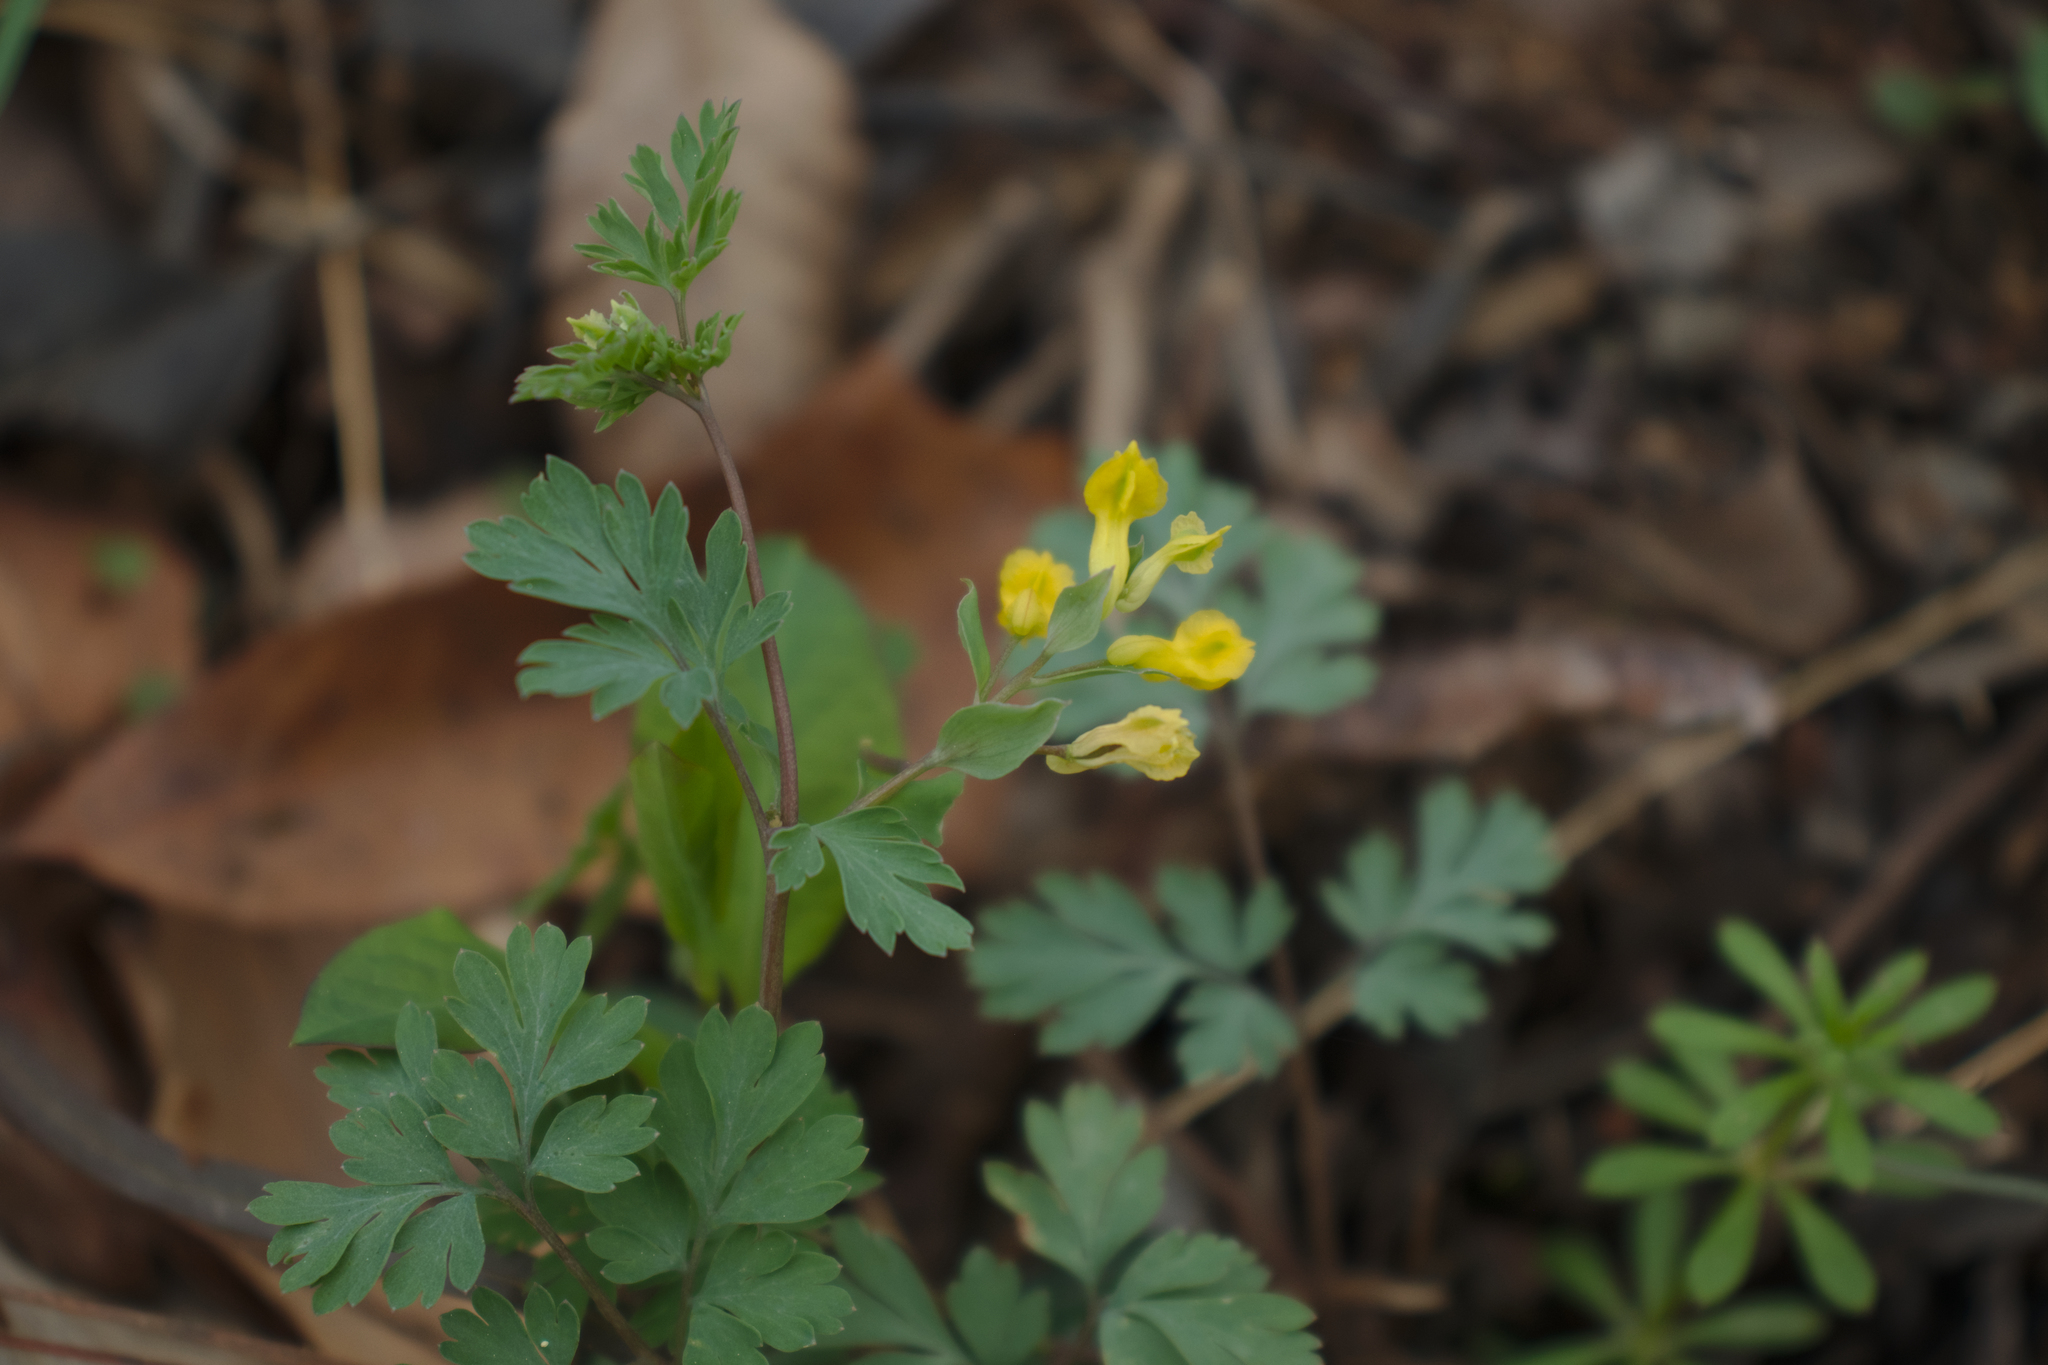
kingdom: Plantae
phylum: Tracheophyta
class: Magnoliopsida
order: Ranunculales
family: Papaveraceae
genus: Corydalis
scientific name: Corydalis flavula
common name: Yellow corydalis
